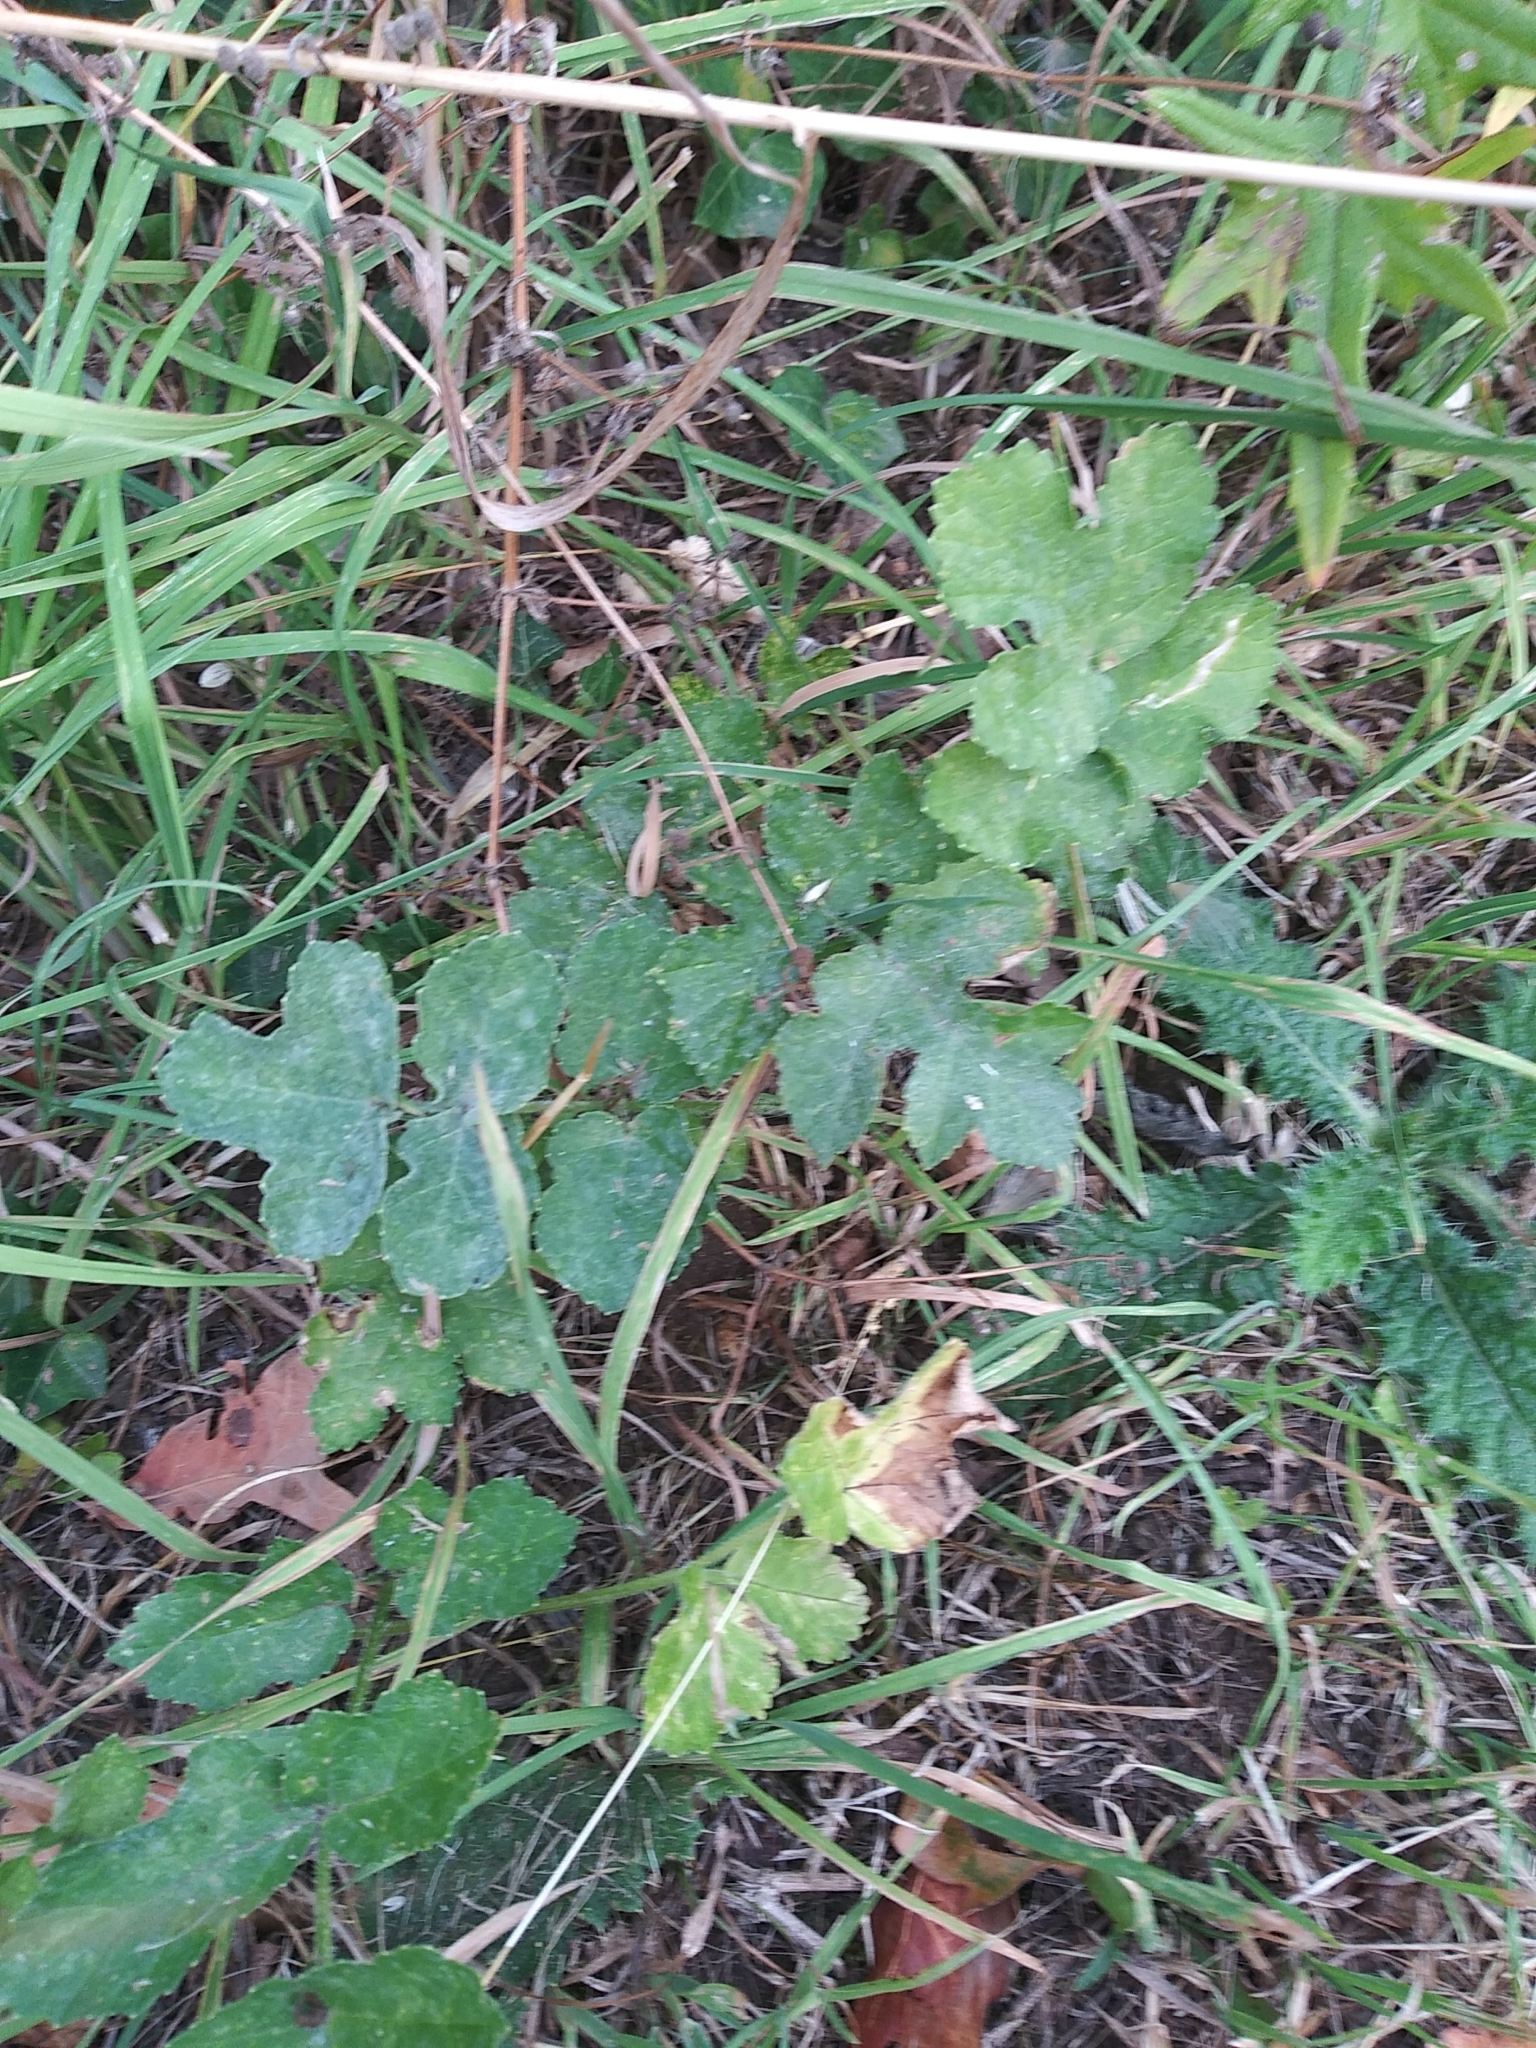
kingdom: Plantae
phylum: Tracheophyta
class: Magnoliopsida
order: Apiales
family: Apiaceae
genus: Heracleum
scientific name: Heracleum sphondylium
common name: Hogweed
